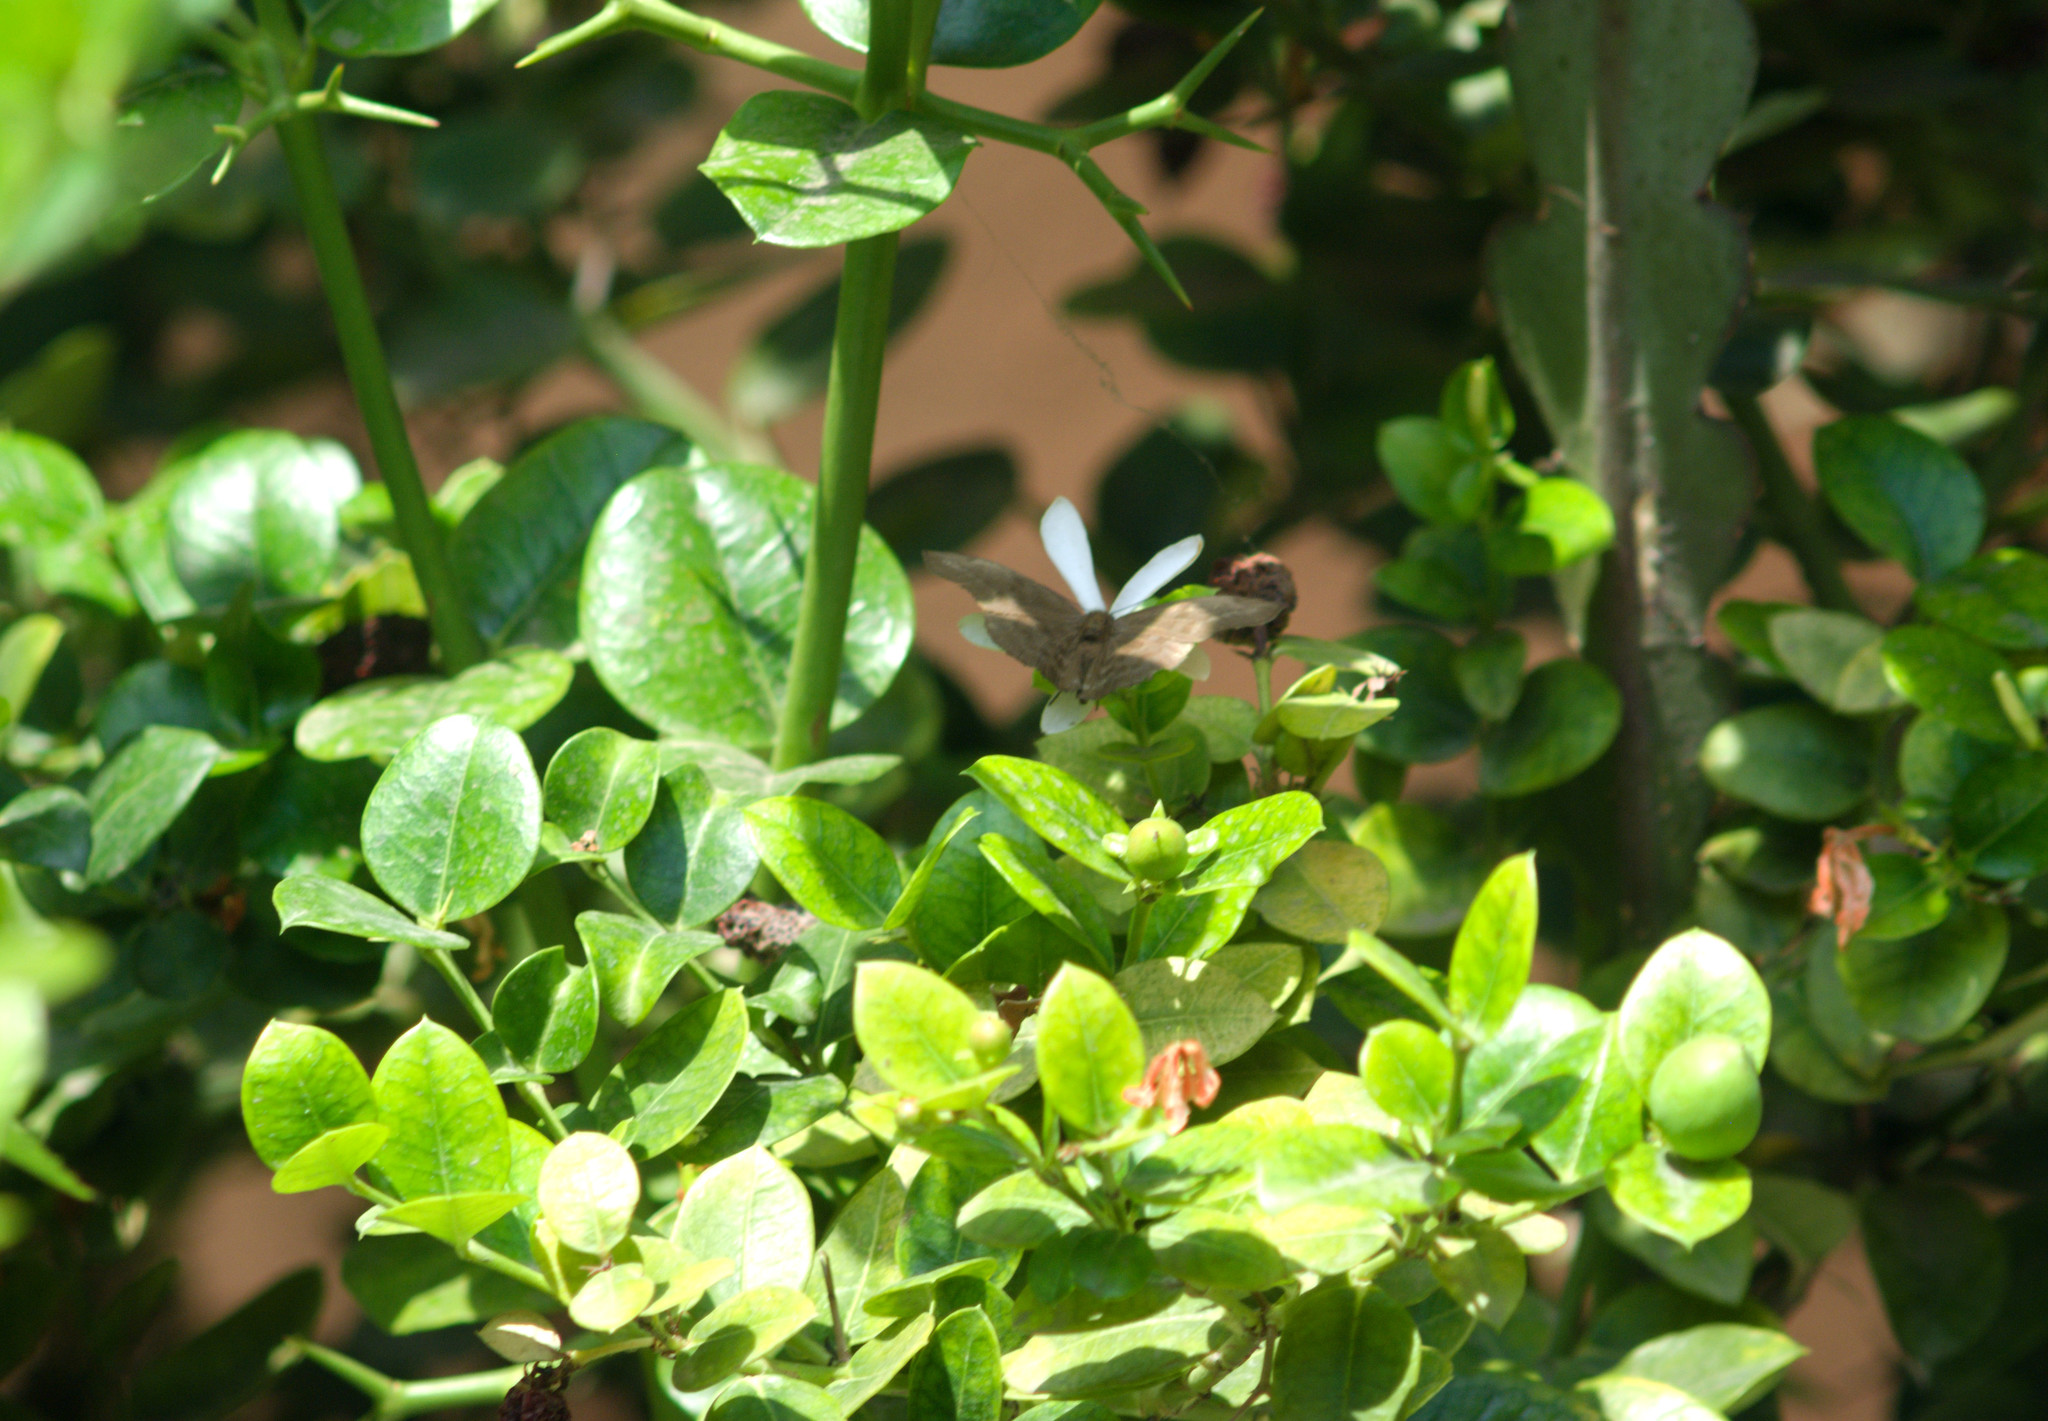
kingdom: Animalia
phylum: Arthropoda
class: Insecta
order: Lepidoptera
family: Hesperiidae
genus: Achlyodes
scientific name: Achlyodes pallida
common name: Pale sicklewing
